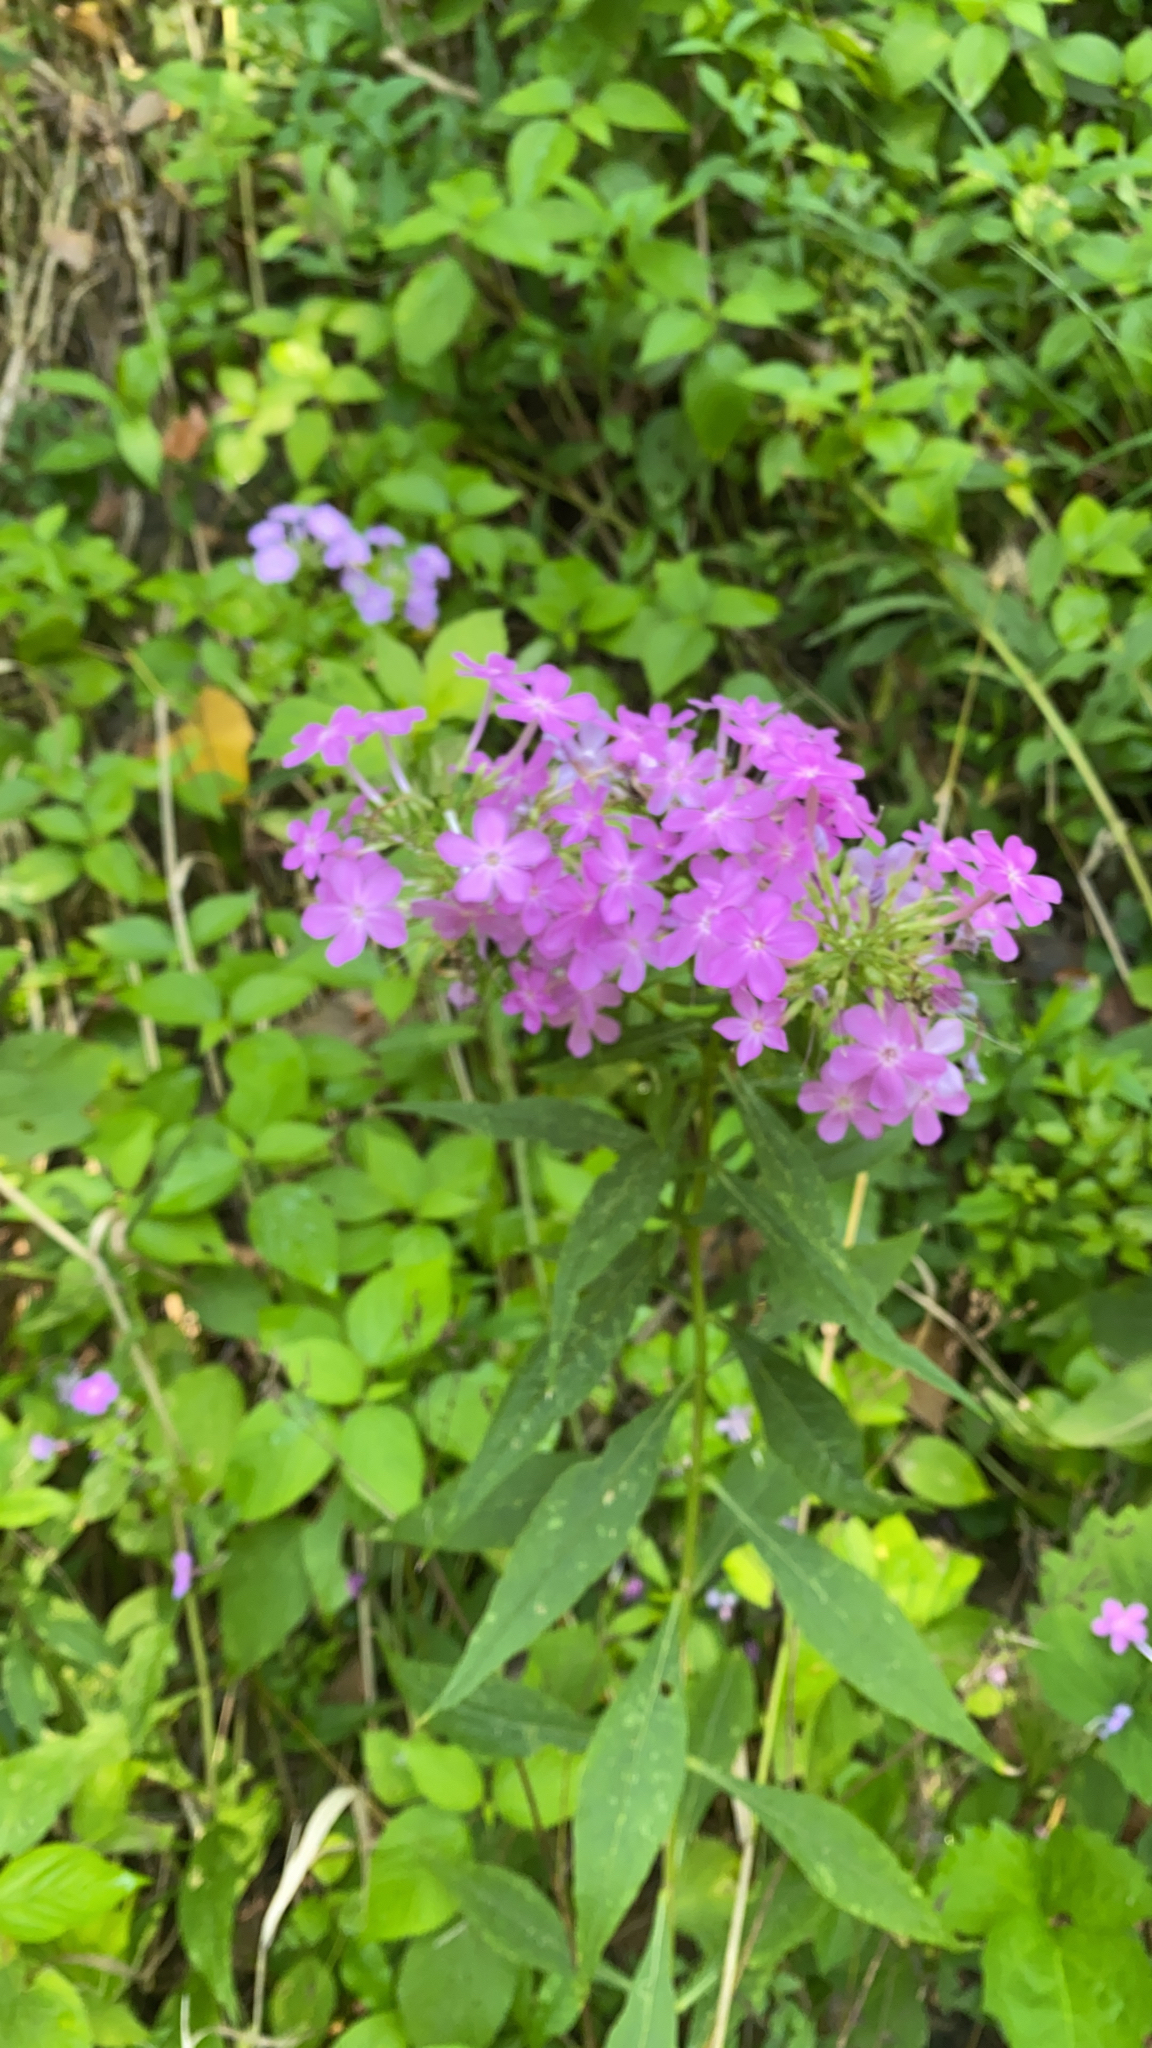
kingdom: Plantae
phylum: Tracheophyta
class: Magnoliopsida
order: Ericales
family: Polemoniaceae
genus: Phlox
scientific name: Phlox paniculata
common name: Fall phlox
